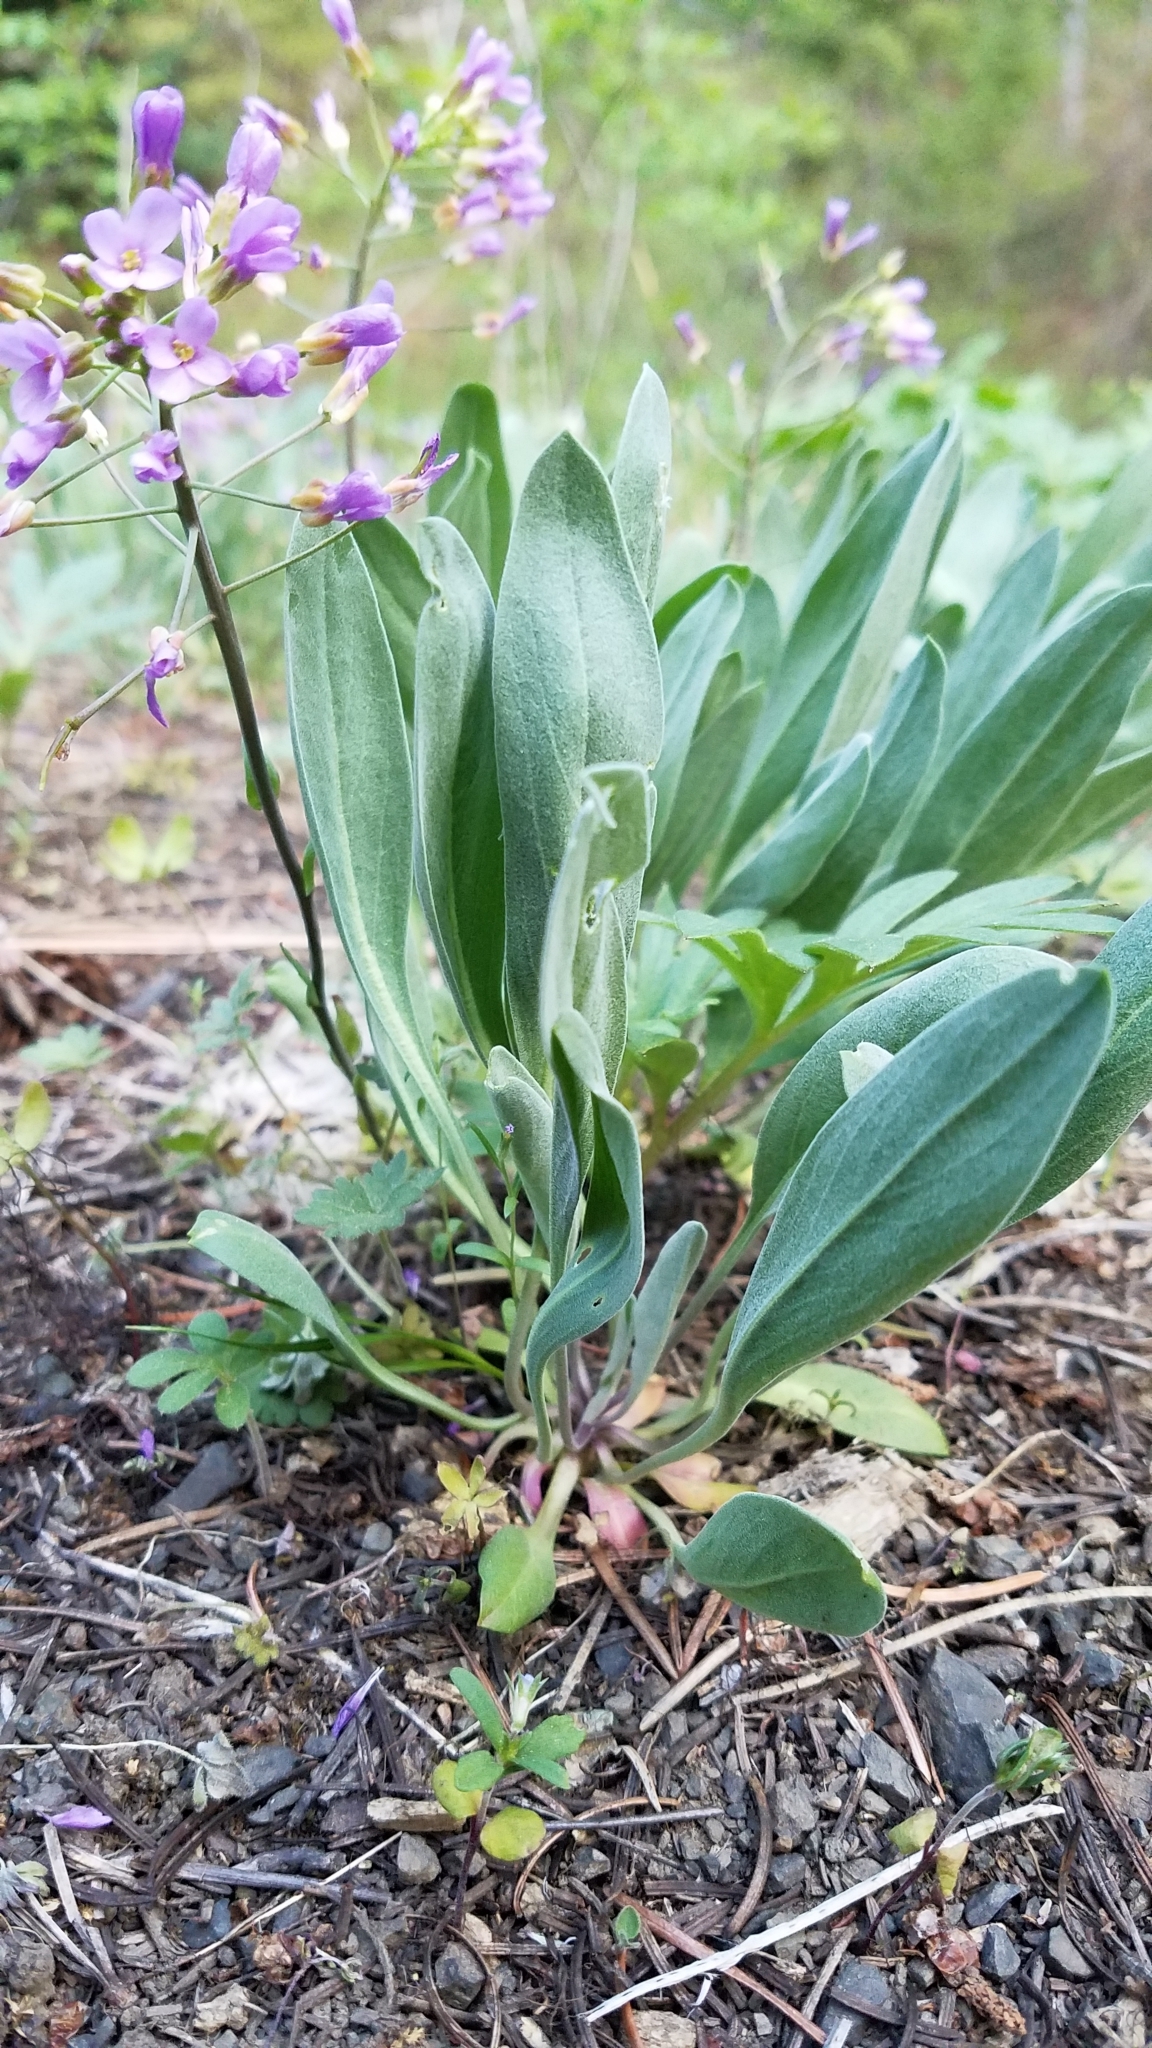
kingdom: Plantae
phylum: Tracheophyta
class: Magnoliopsida
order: Brassicales
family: Brassicaceae
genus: Phoenicaulis
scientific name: Phoenicaulis cheiranthoides
